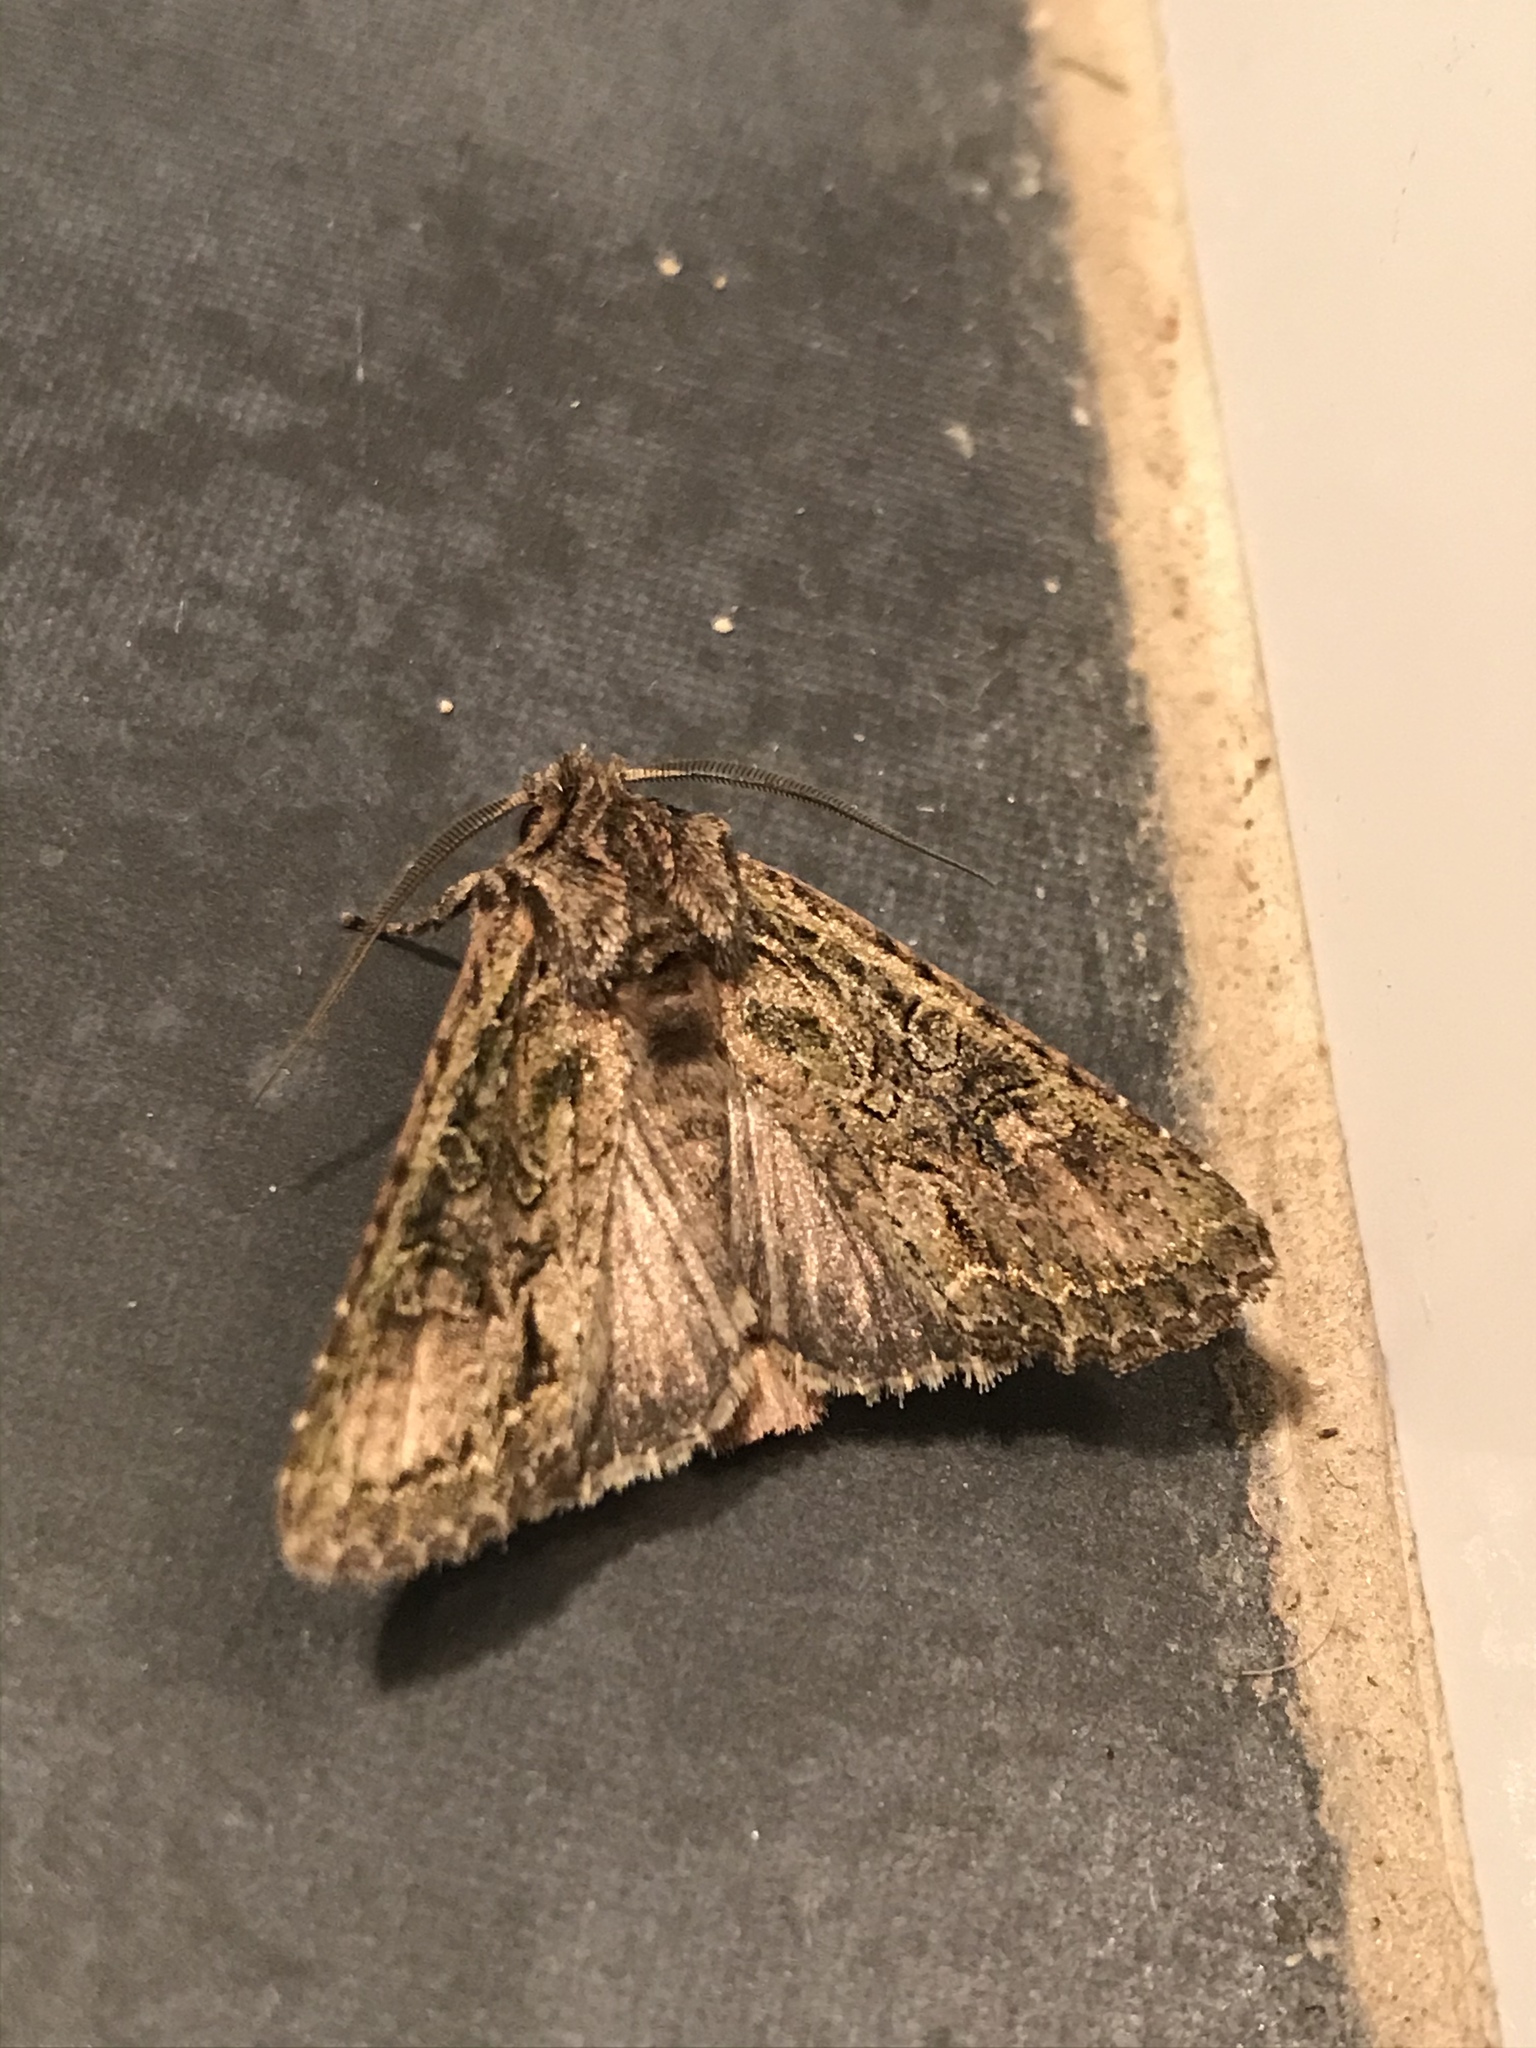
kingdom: Animalia
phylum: Arthropoda
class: Insecta
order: Lepidoptera
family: Noctuidae
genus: Ichneutica
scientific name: Ichneutica mutans
